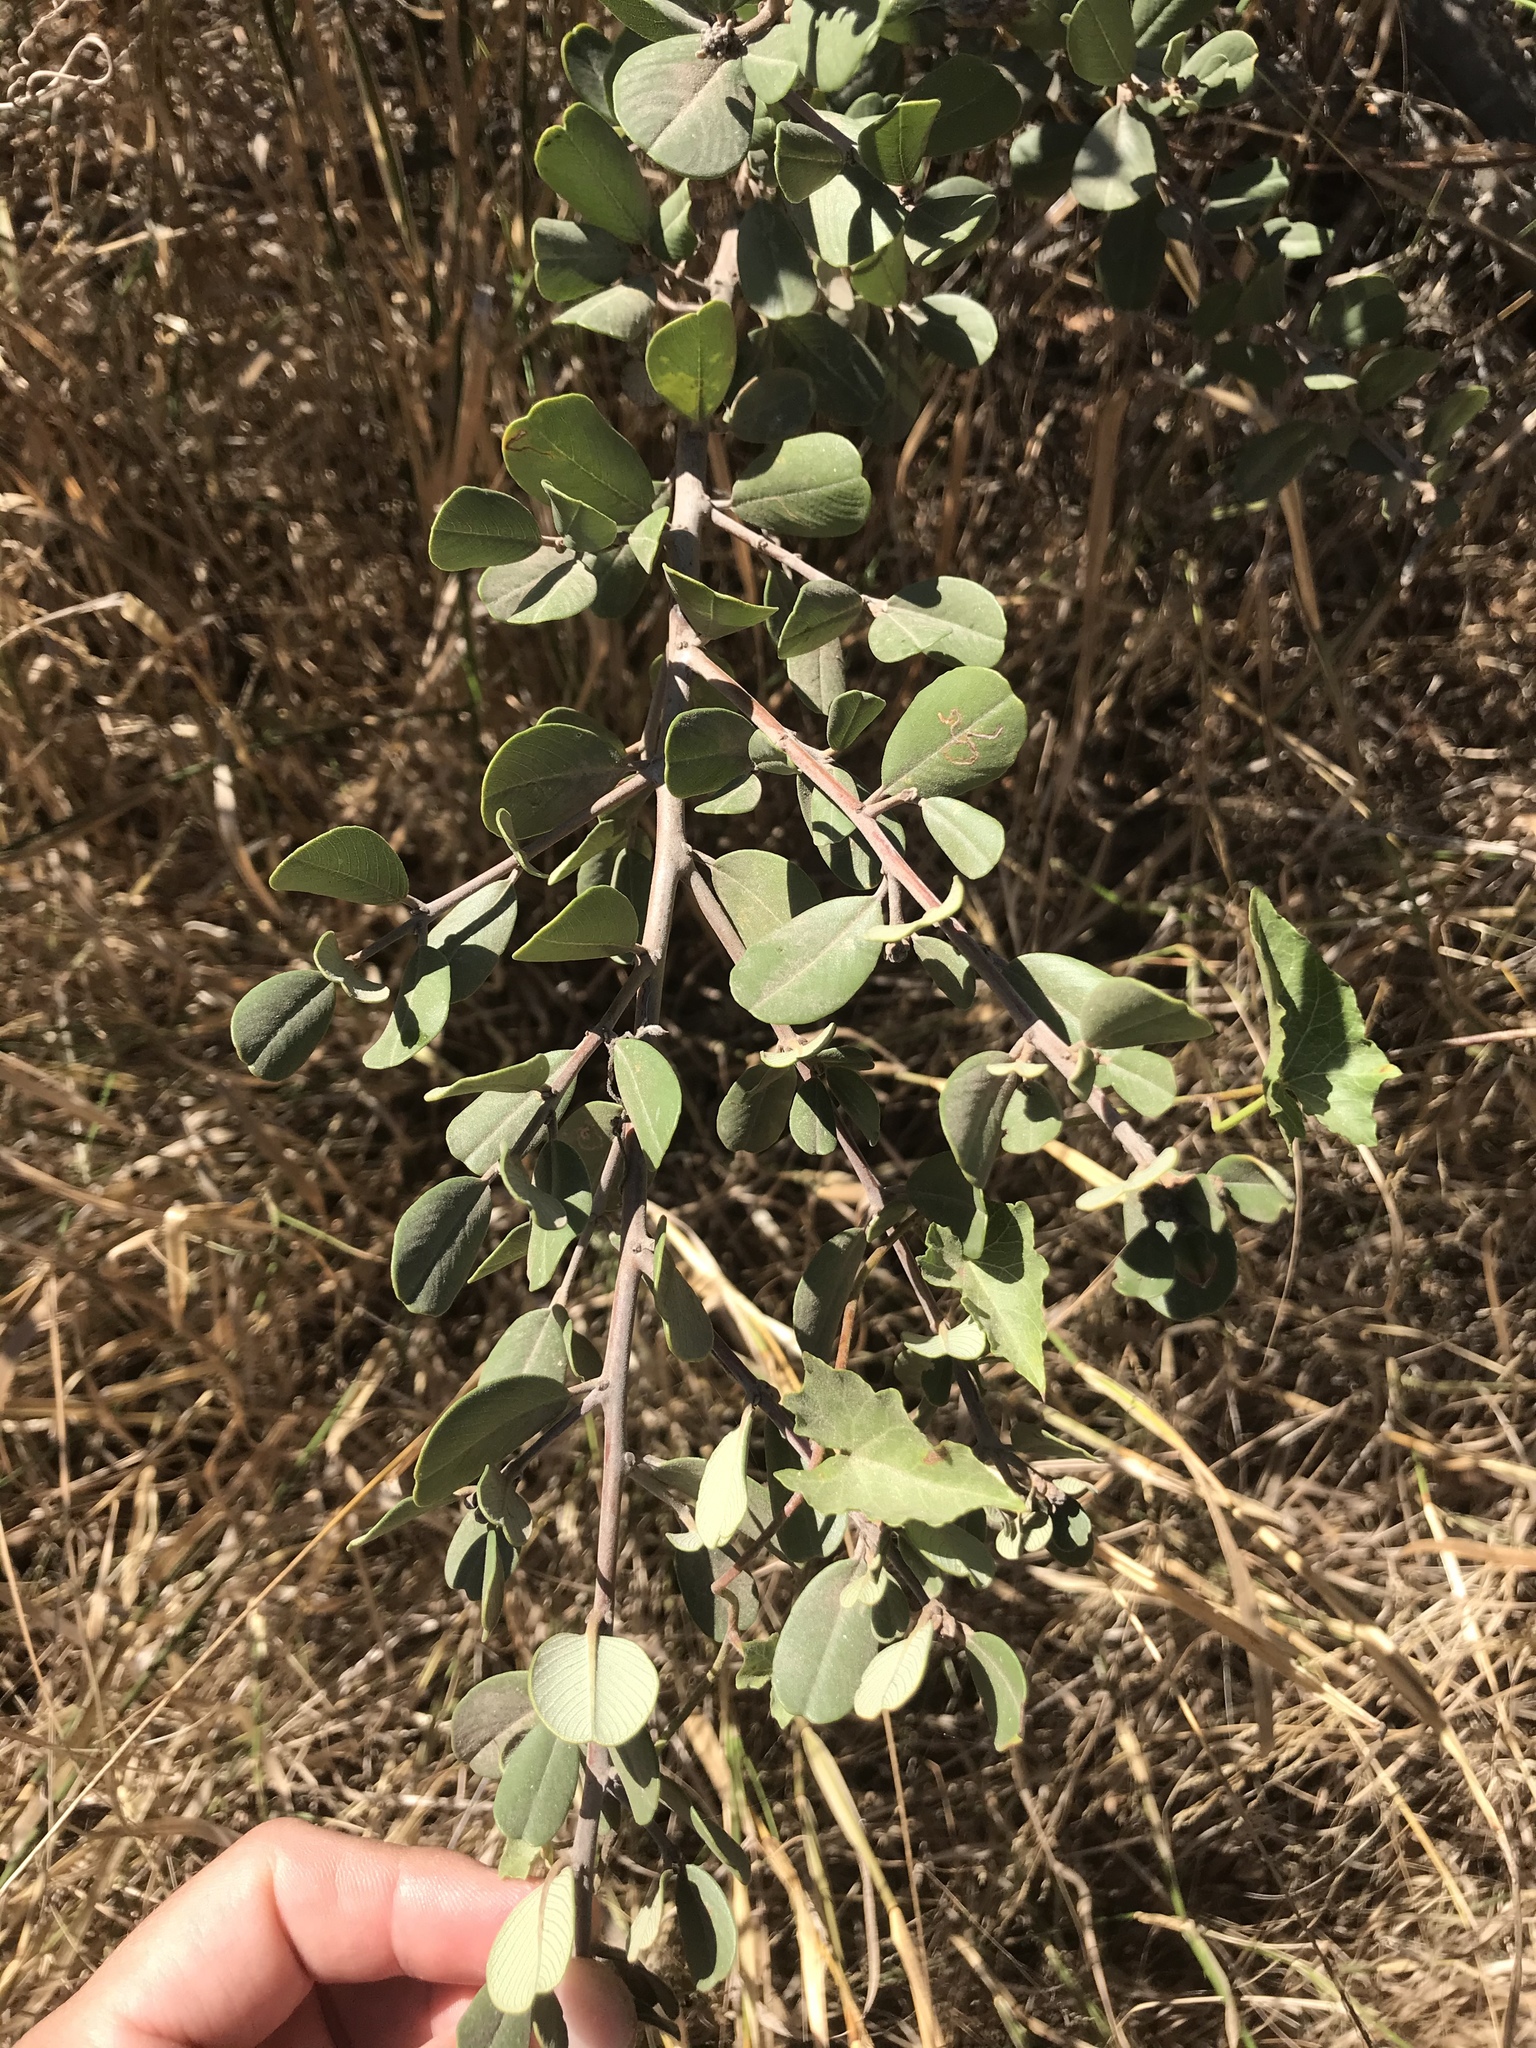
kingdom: Plantae
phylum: Tracheophyta
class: Magnoliopsida
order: Rosales
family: Rhamnaceae
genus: Ceanothus
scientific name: Ceanothus megacarpus
